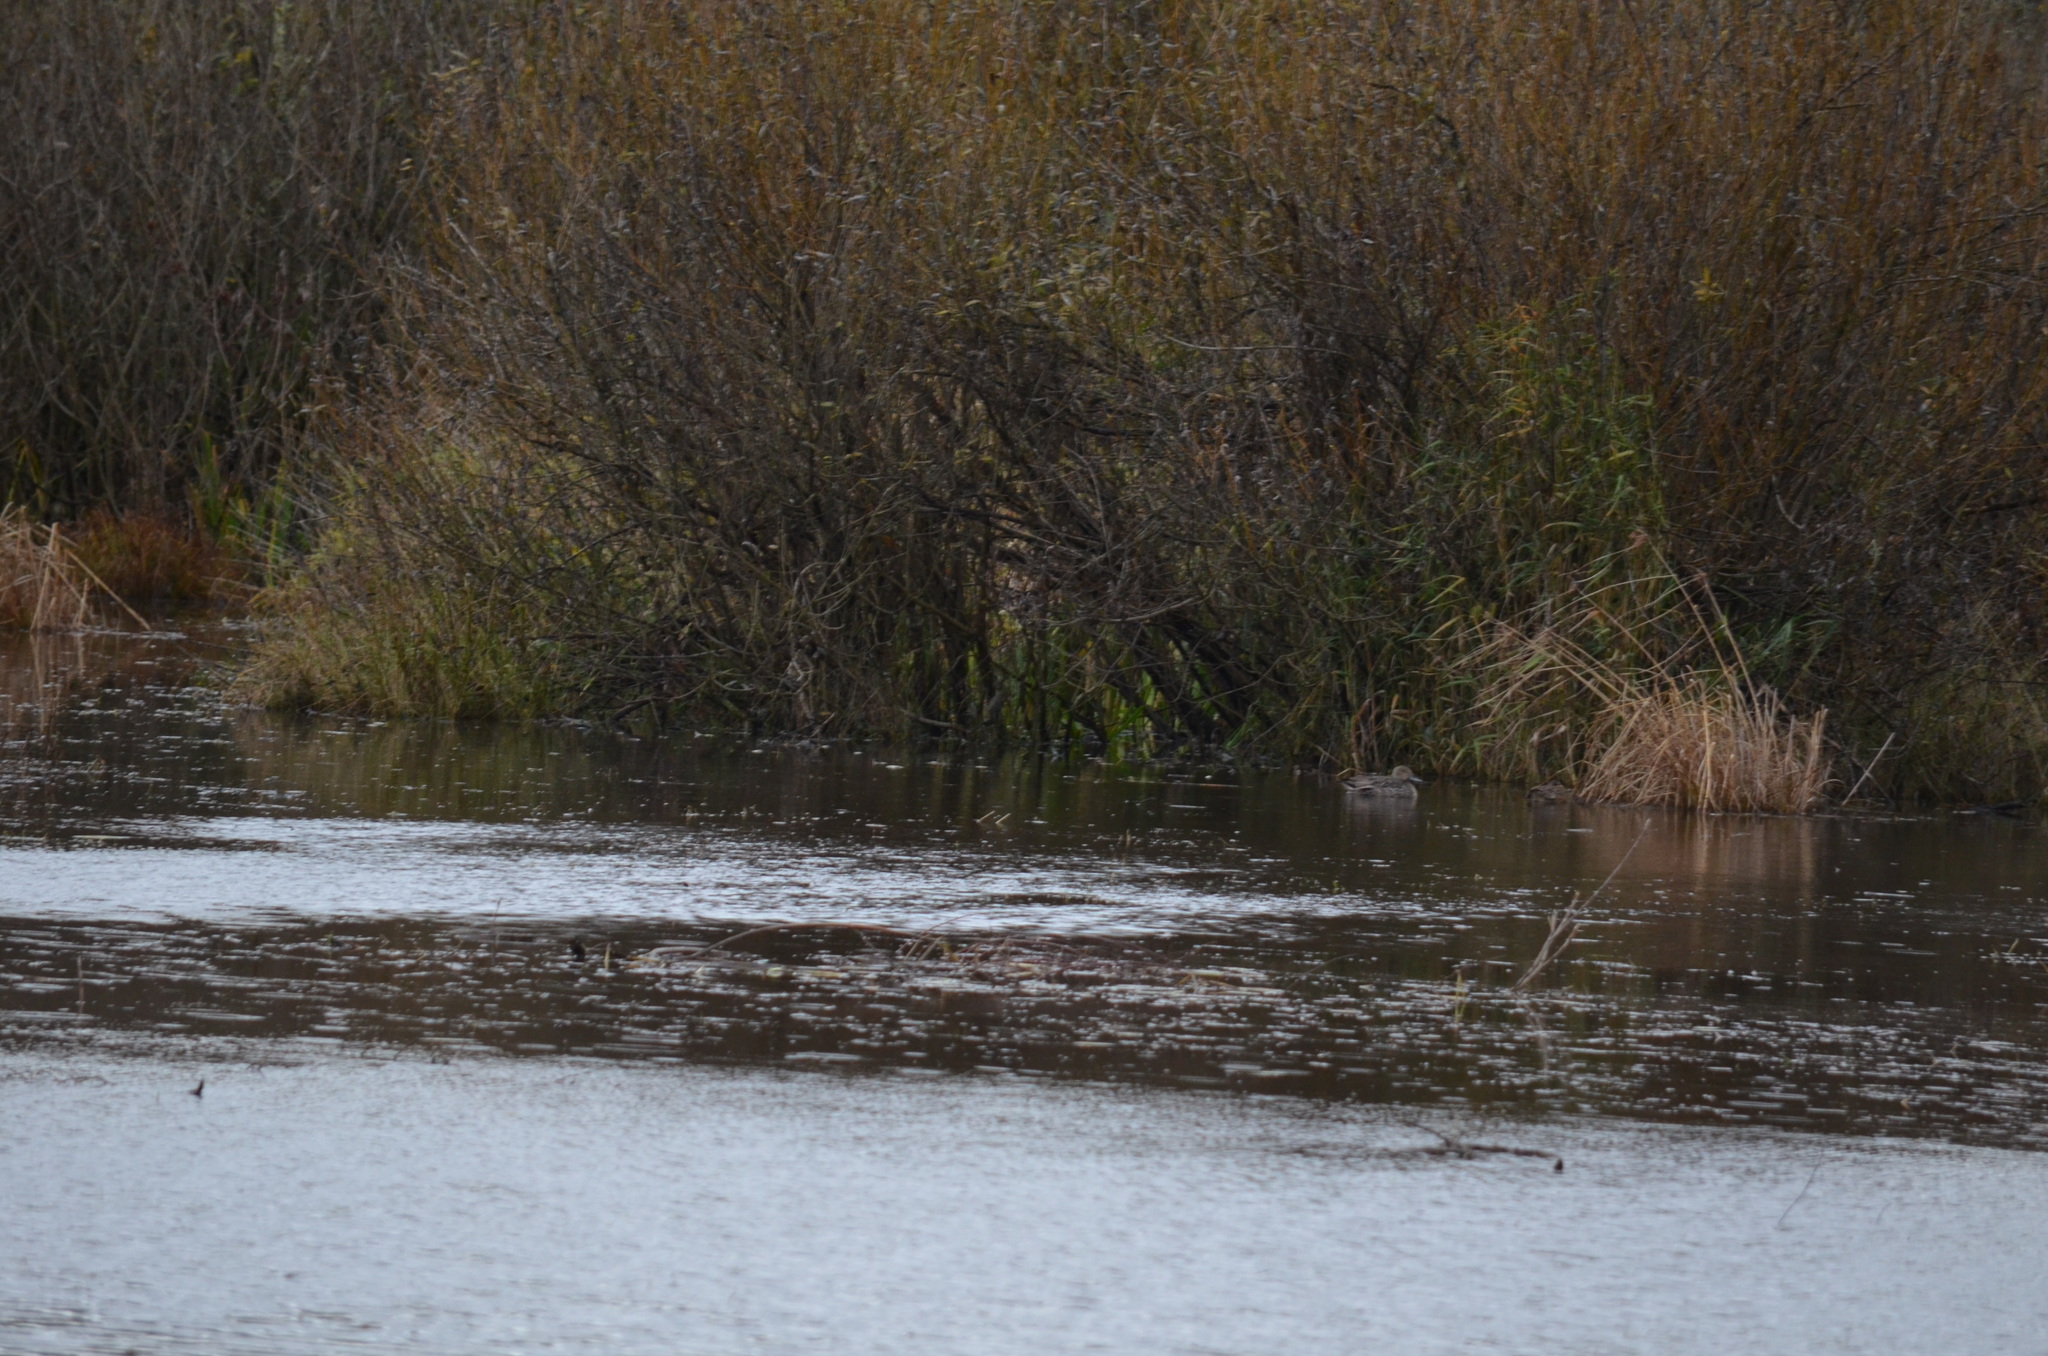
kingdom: Animalia
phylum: Chordata
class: Aves
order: Anseriformes
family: Anatidae
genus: Anas
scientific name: Anas acuta
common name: Northern pintail
